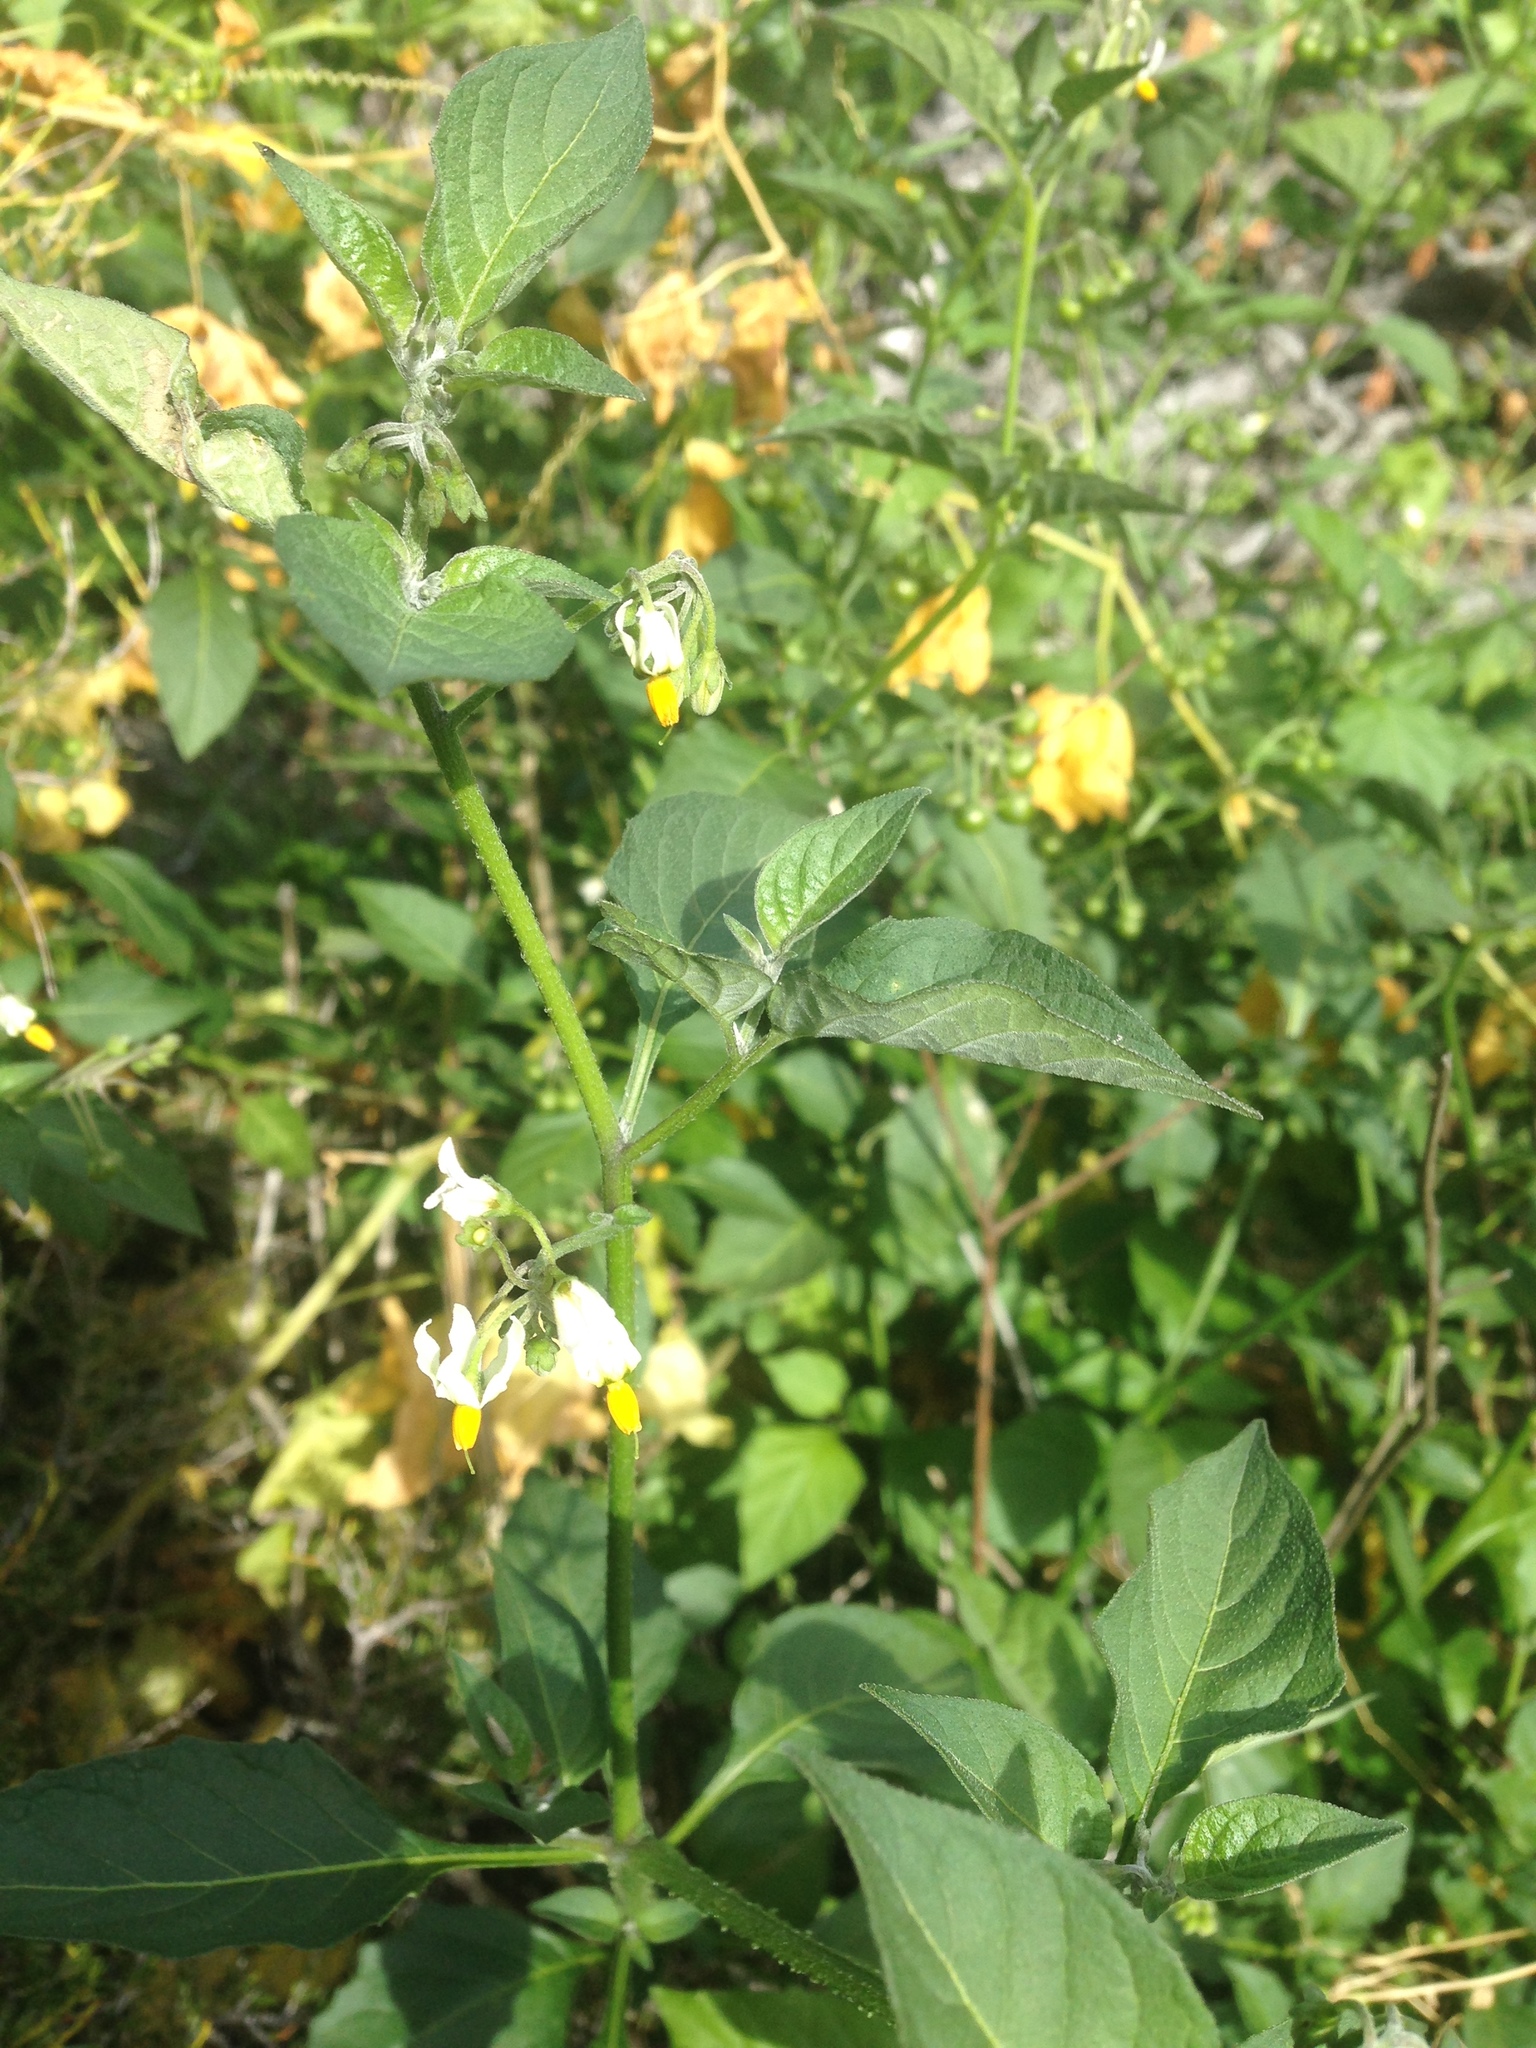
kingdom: Plantae
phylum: Tracheophyta
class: Magnoliopsida
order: Solanales
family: Solanaceae
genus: Solanum
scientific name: Solanum douglasii
